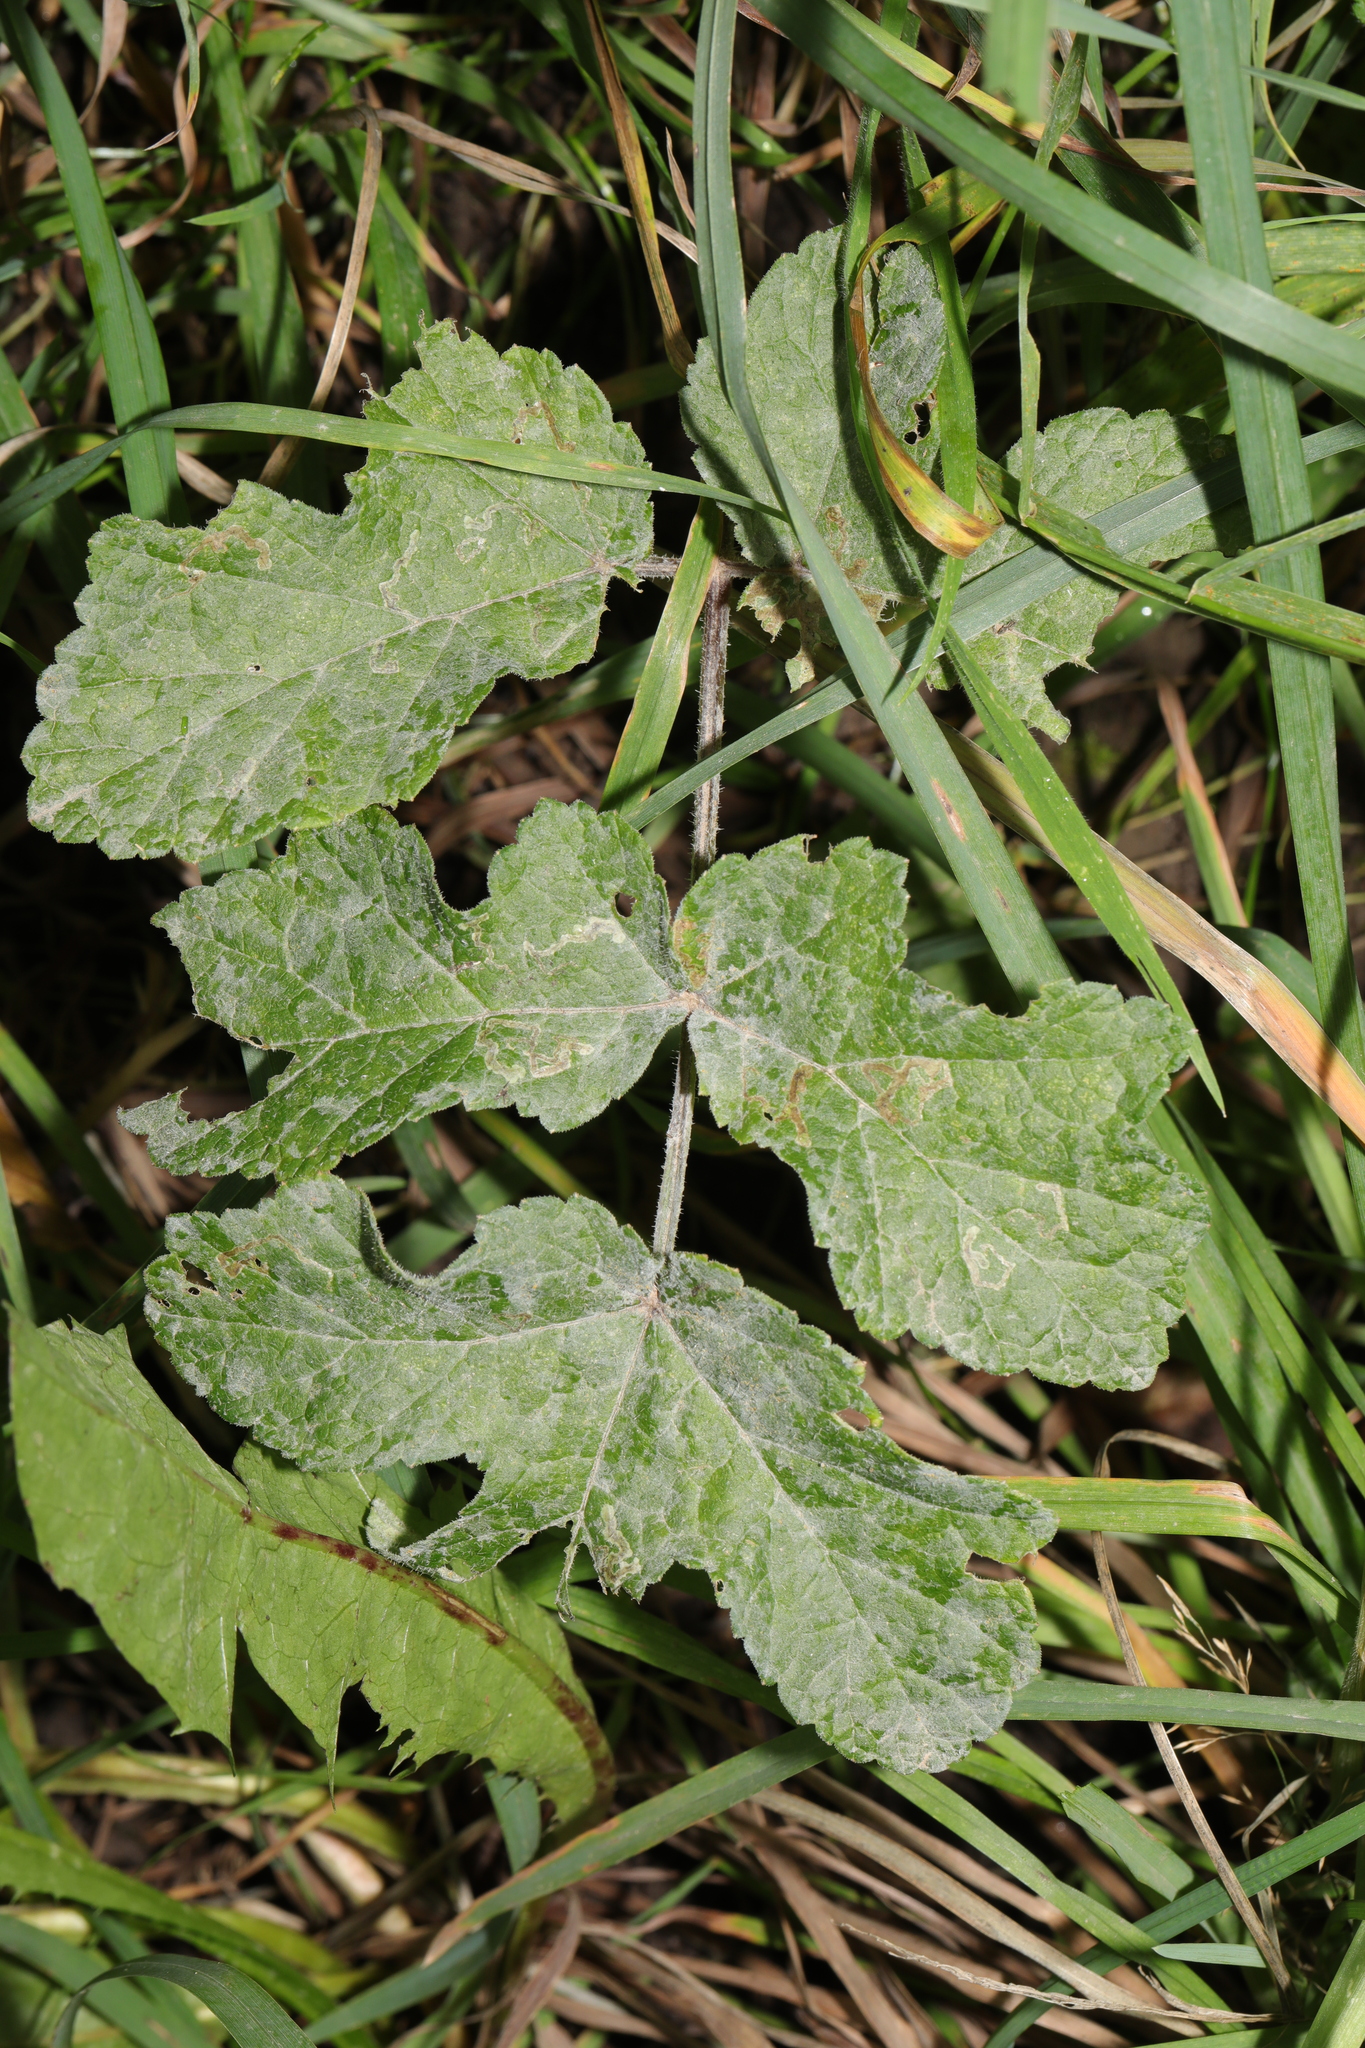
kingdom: Plantae
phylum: Tracheophyta
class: Magnoliopsida
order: Apiales
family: Apiaceae
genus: Heracleum
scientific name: Heracleum sphondylium
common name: Hogweed
